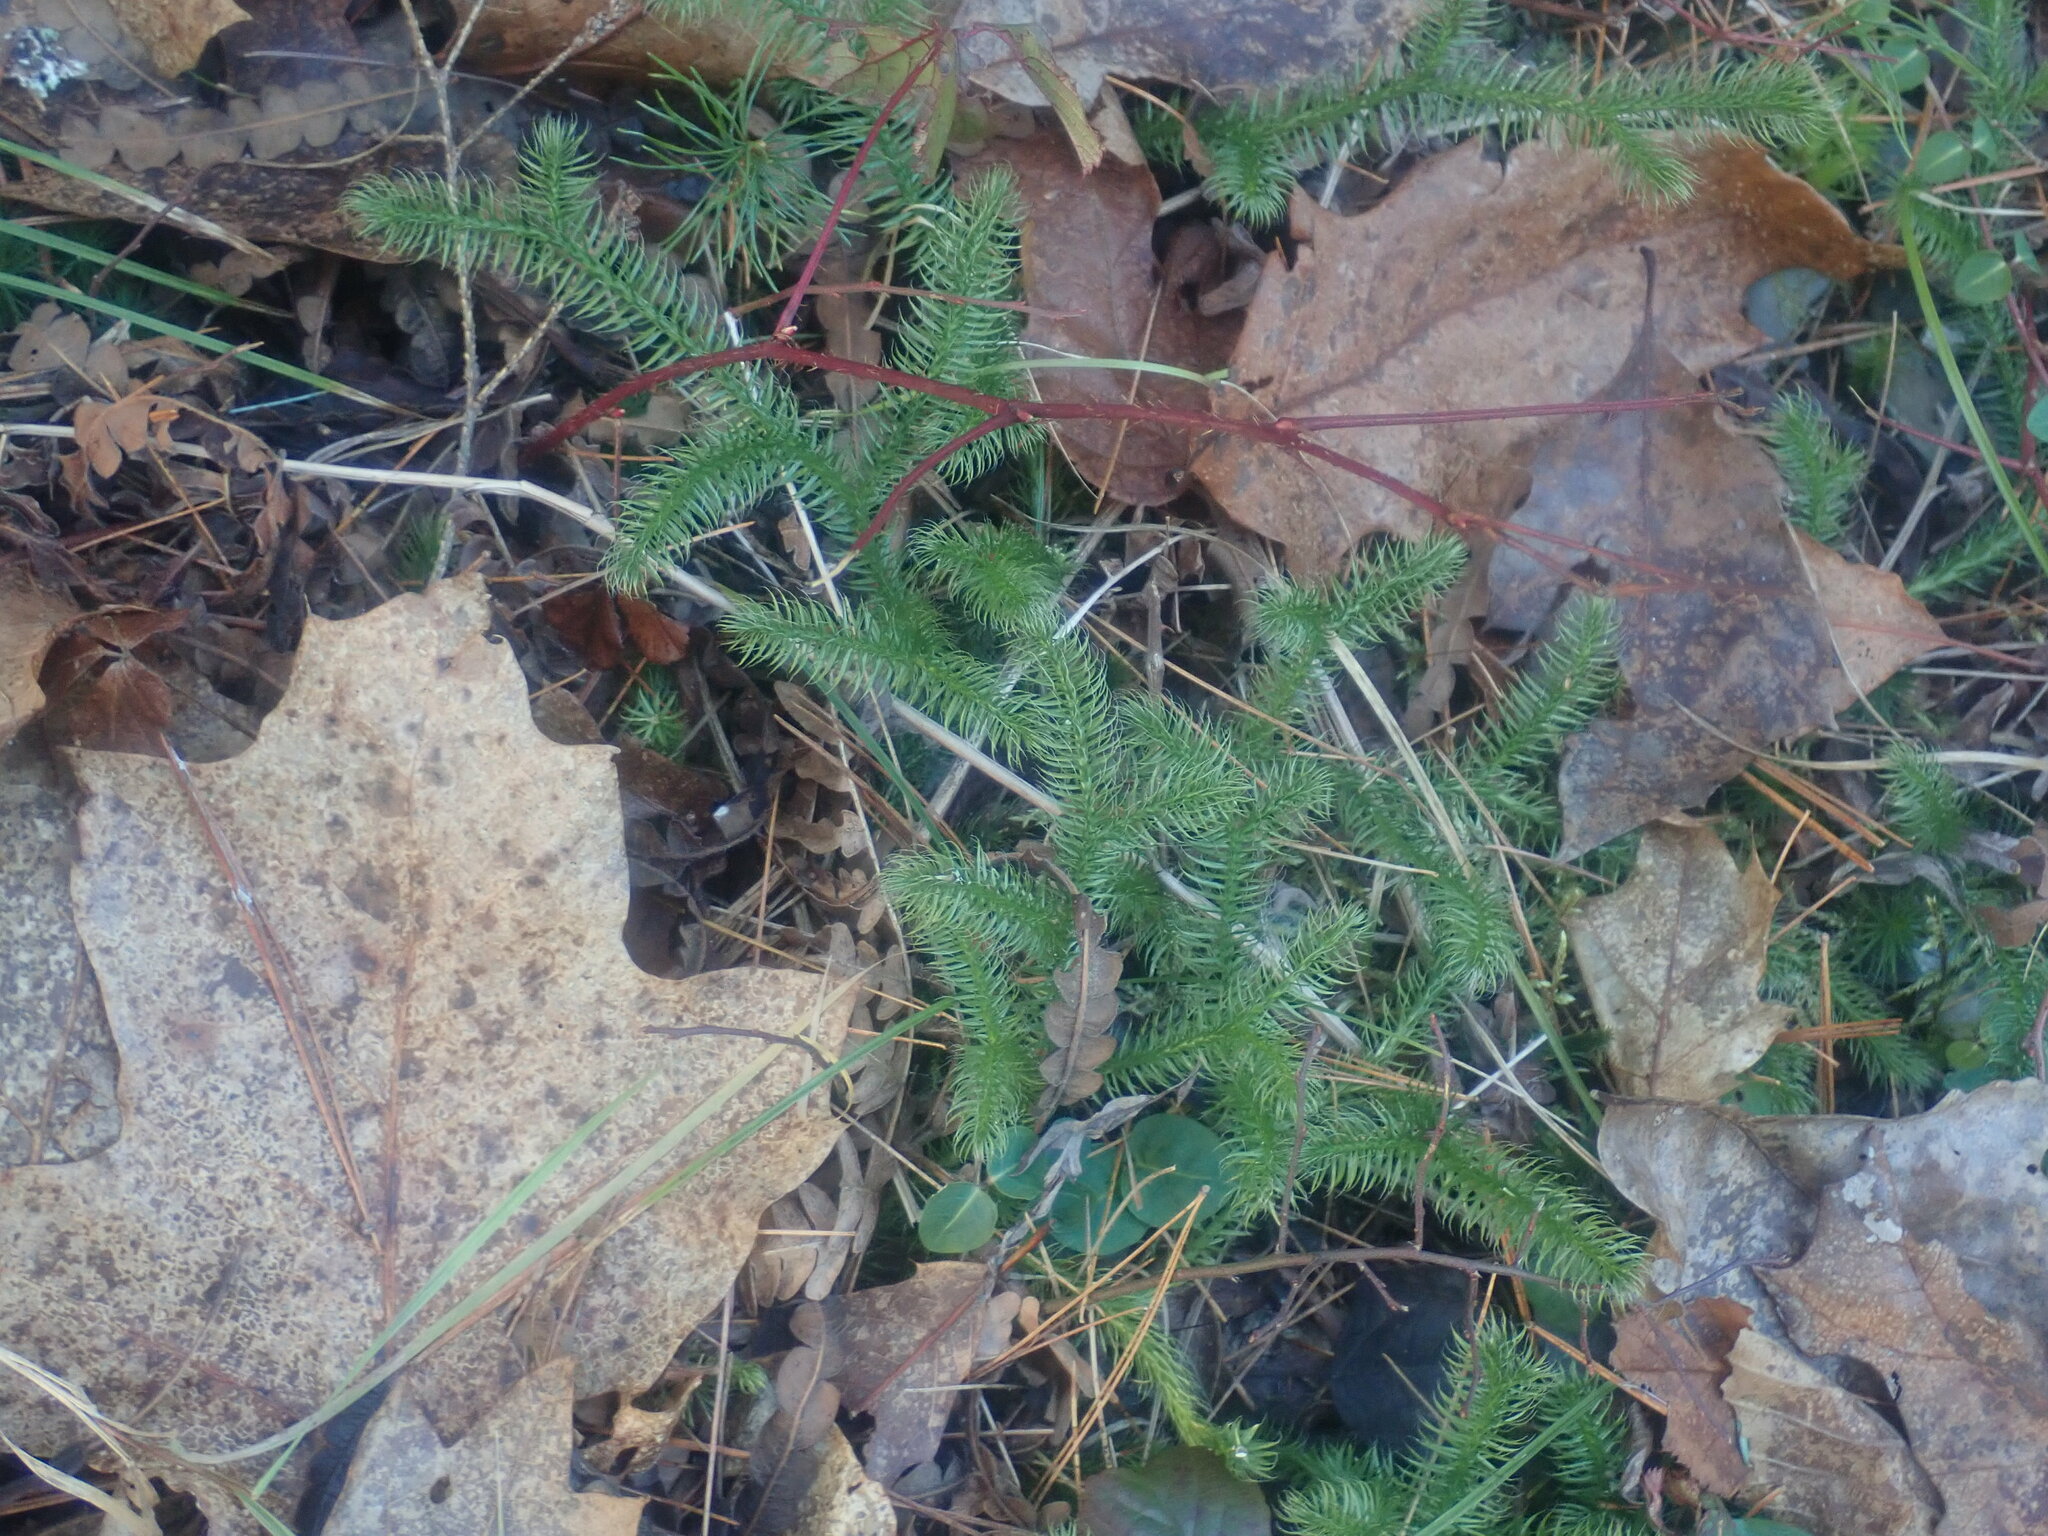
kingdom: Plantae
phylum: Tracheophyta
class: Lycopodiopsida
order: Lycopodiales
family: Lycopodiaceae
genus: Lycopodium
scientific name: Lycopodium clavatum
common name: Stag's-horn clubmoss
